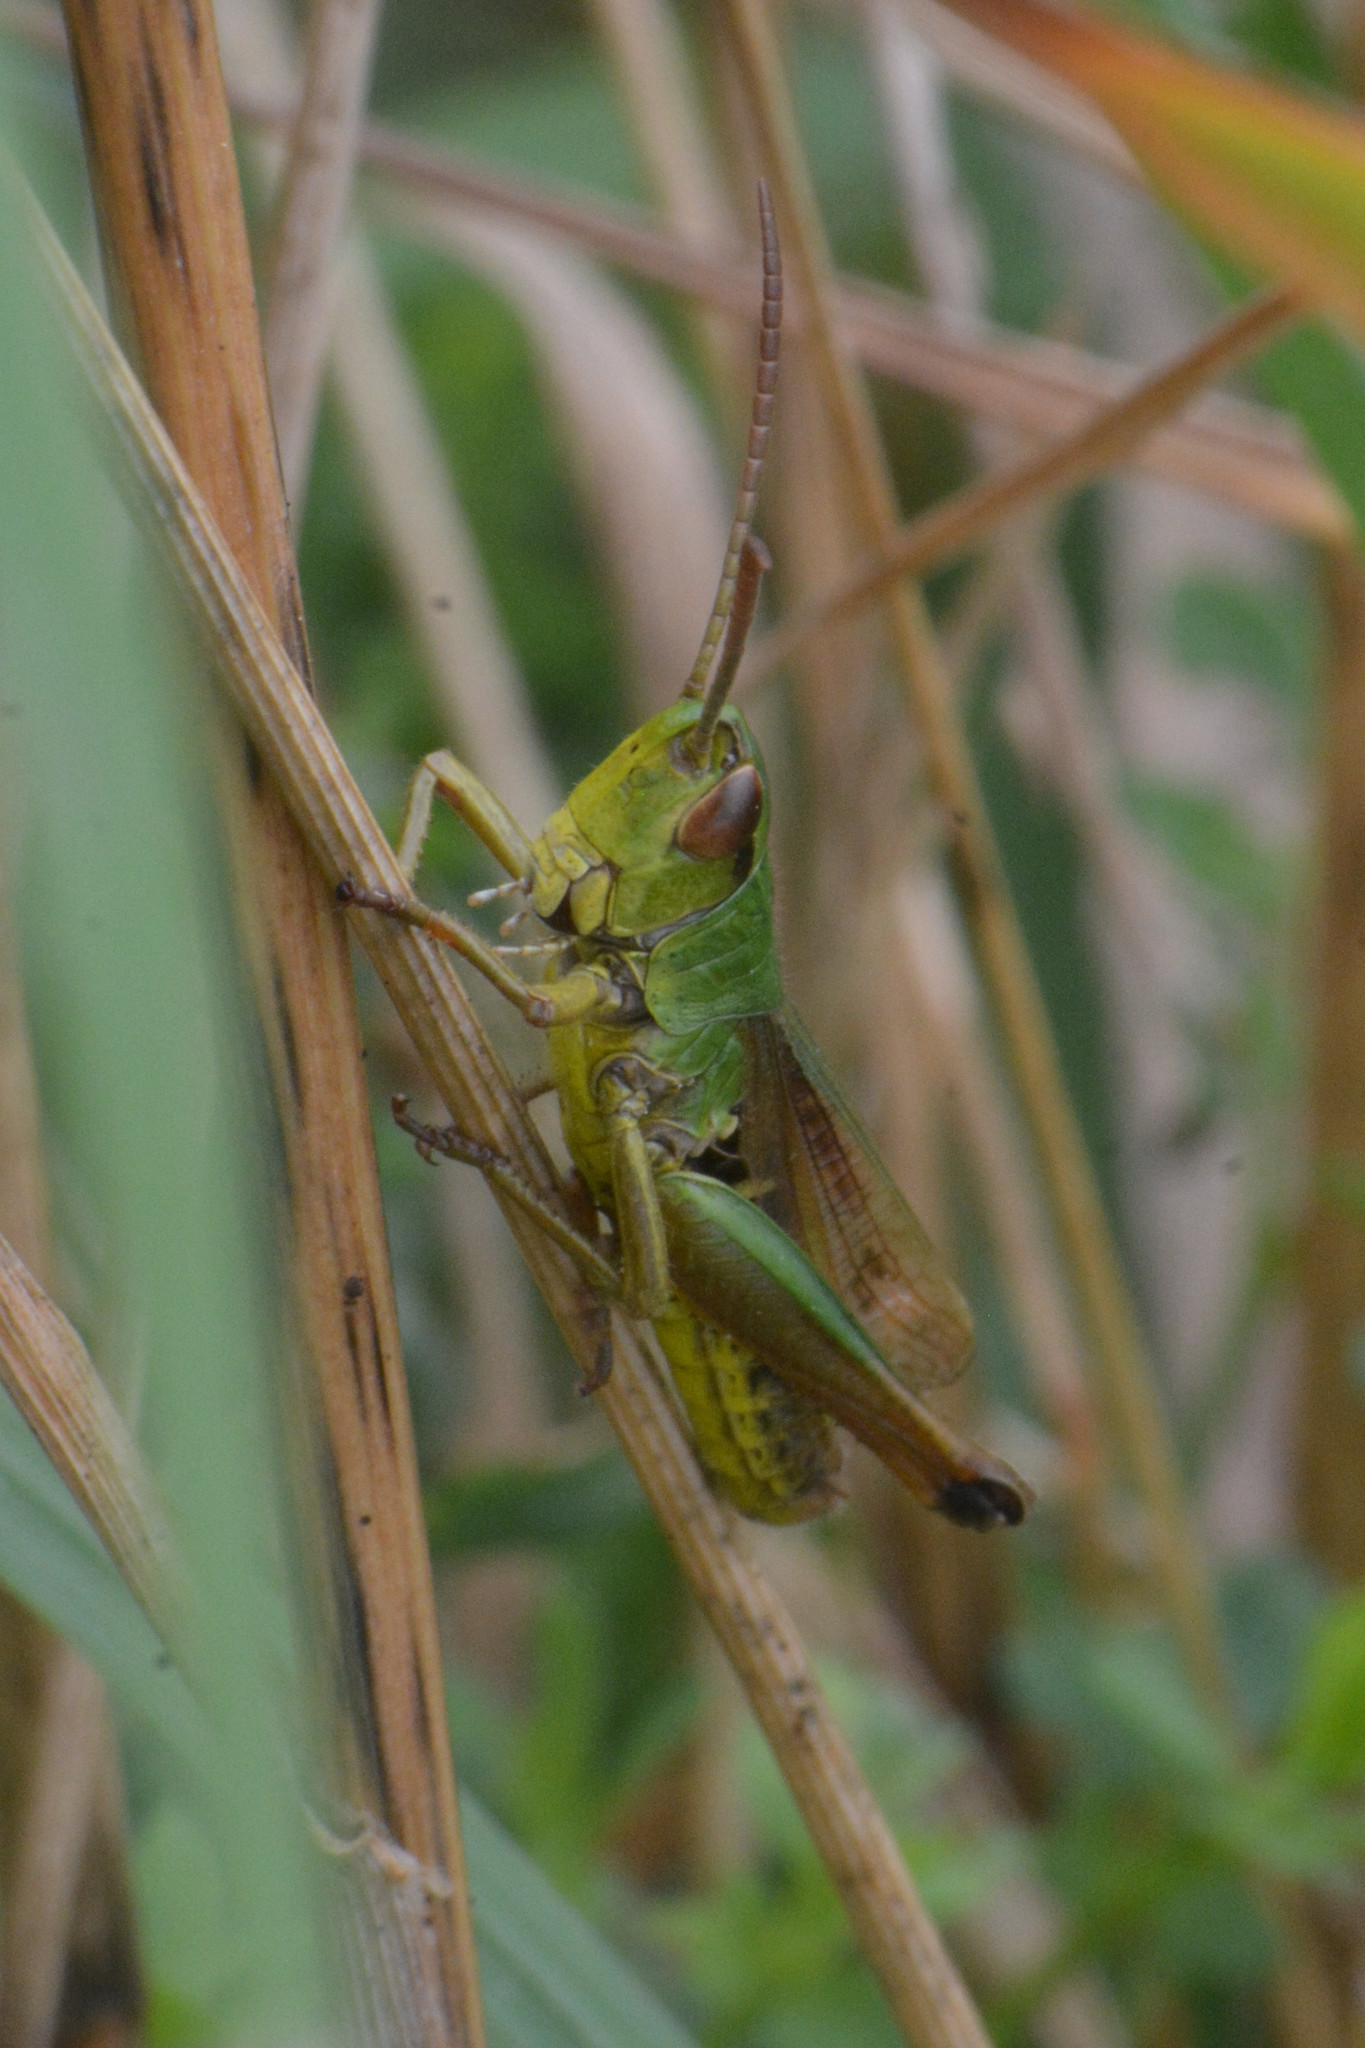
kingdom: Animalia
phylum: Arthropoda
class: Insecta
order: Orthoptera
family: Acrididae
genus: Pseudochorthippus
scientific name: Pseudochorthippus parallelus
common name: Meadow grasshopper
